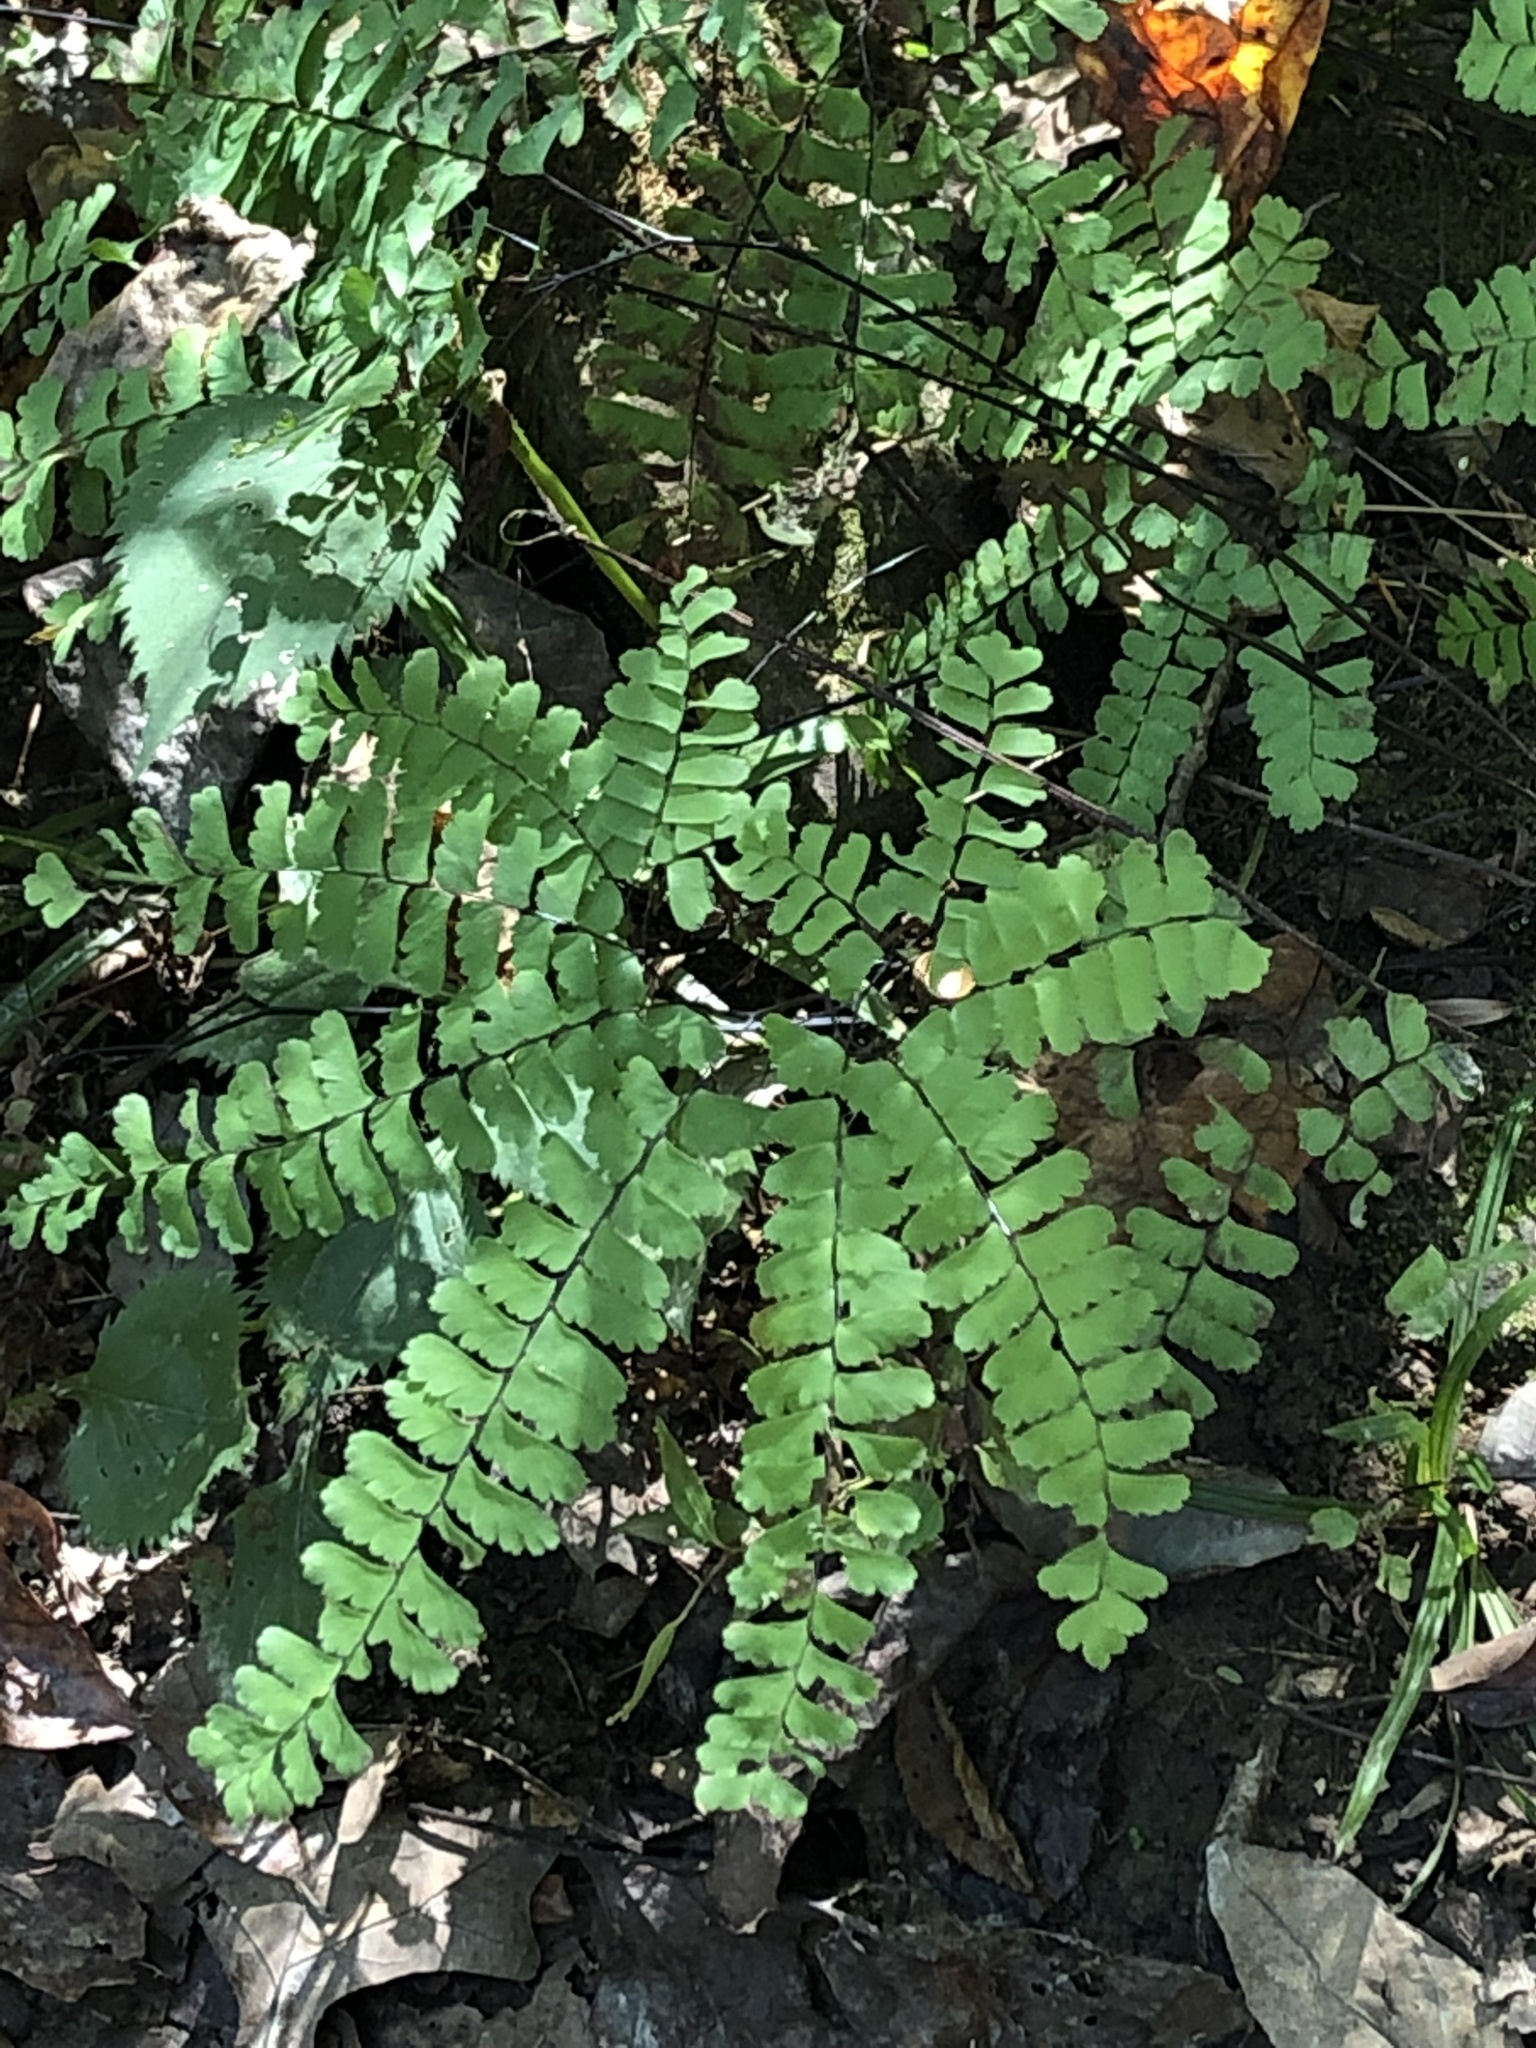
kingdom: Plantae
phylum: Tracheophyta
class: Polypodiopsida
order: Polypodiales
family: Pteridaceae
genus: Adiantum
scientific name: Adiantum pedatum
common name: Five-finger fern
